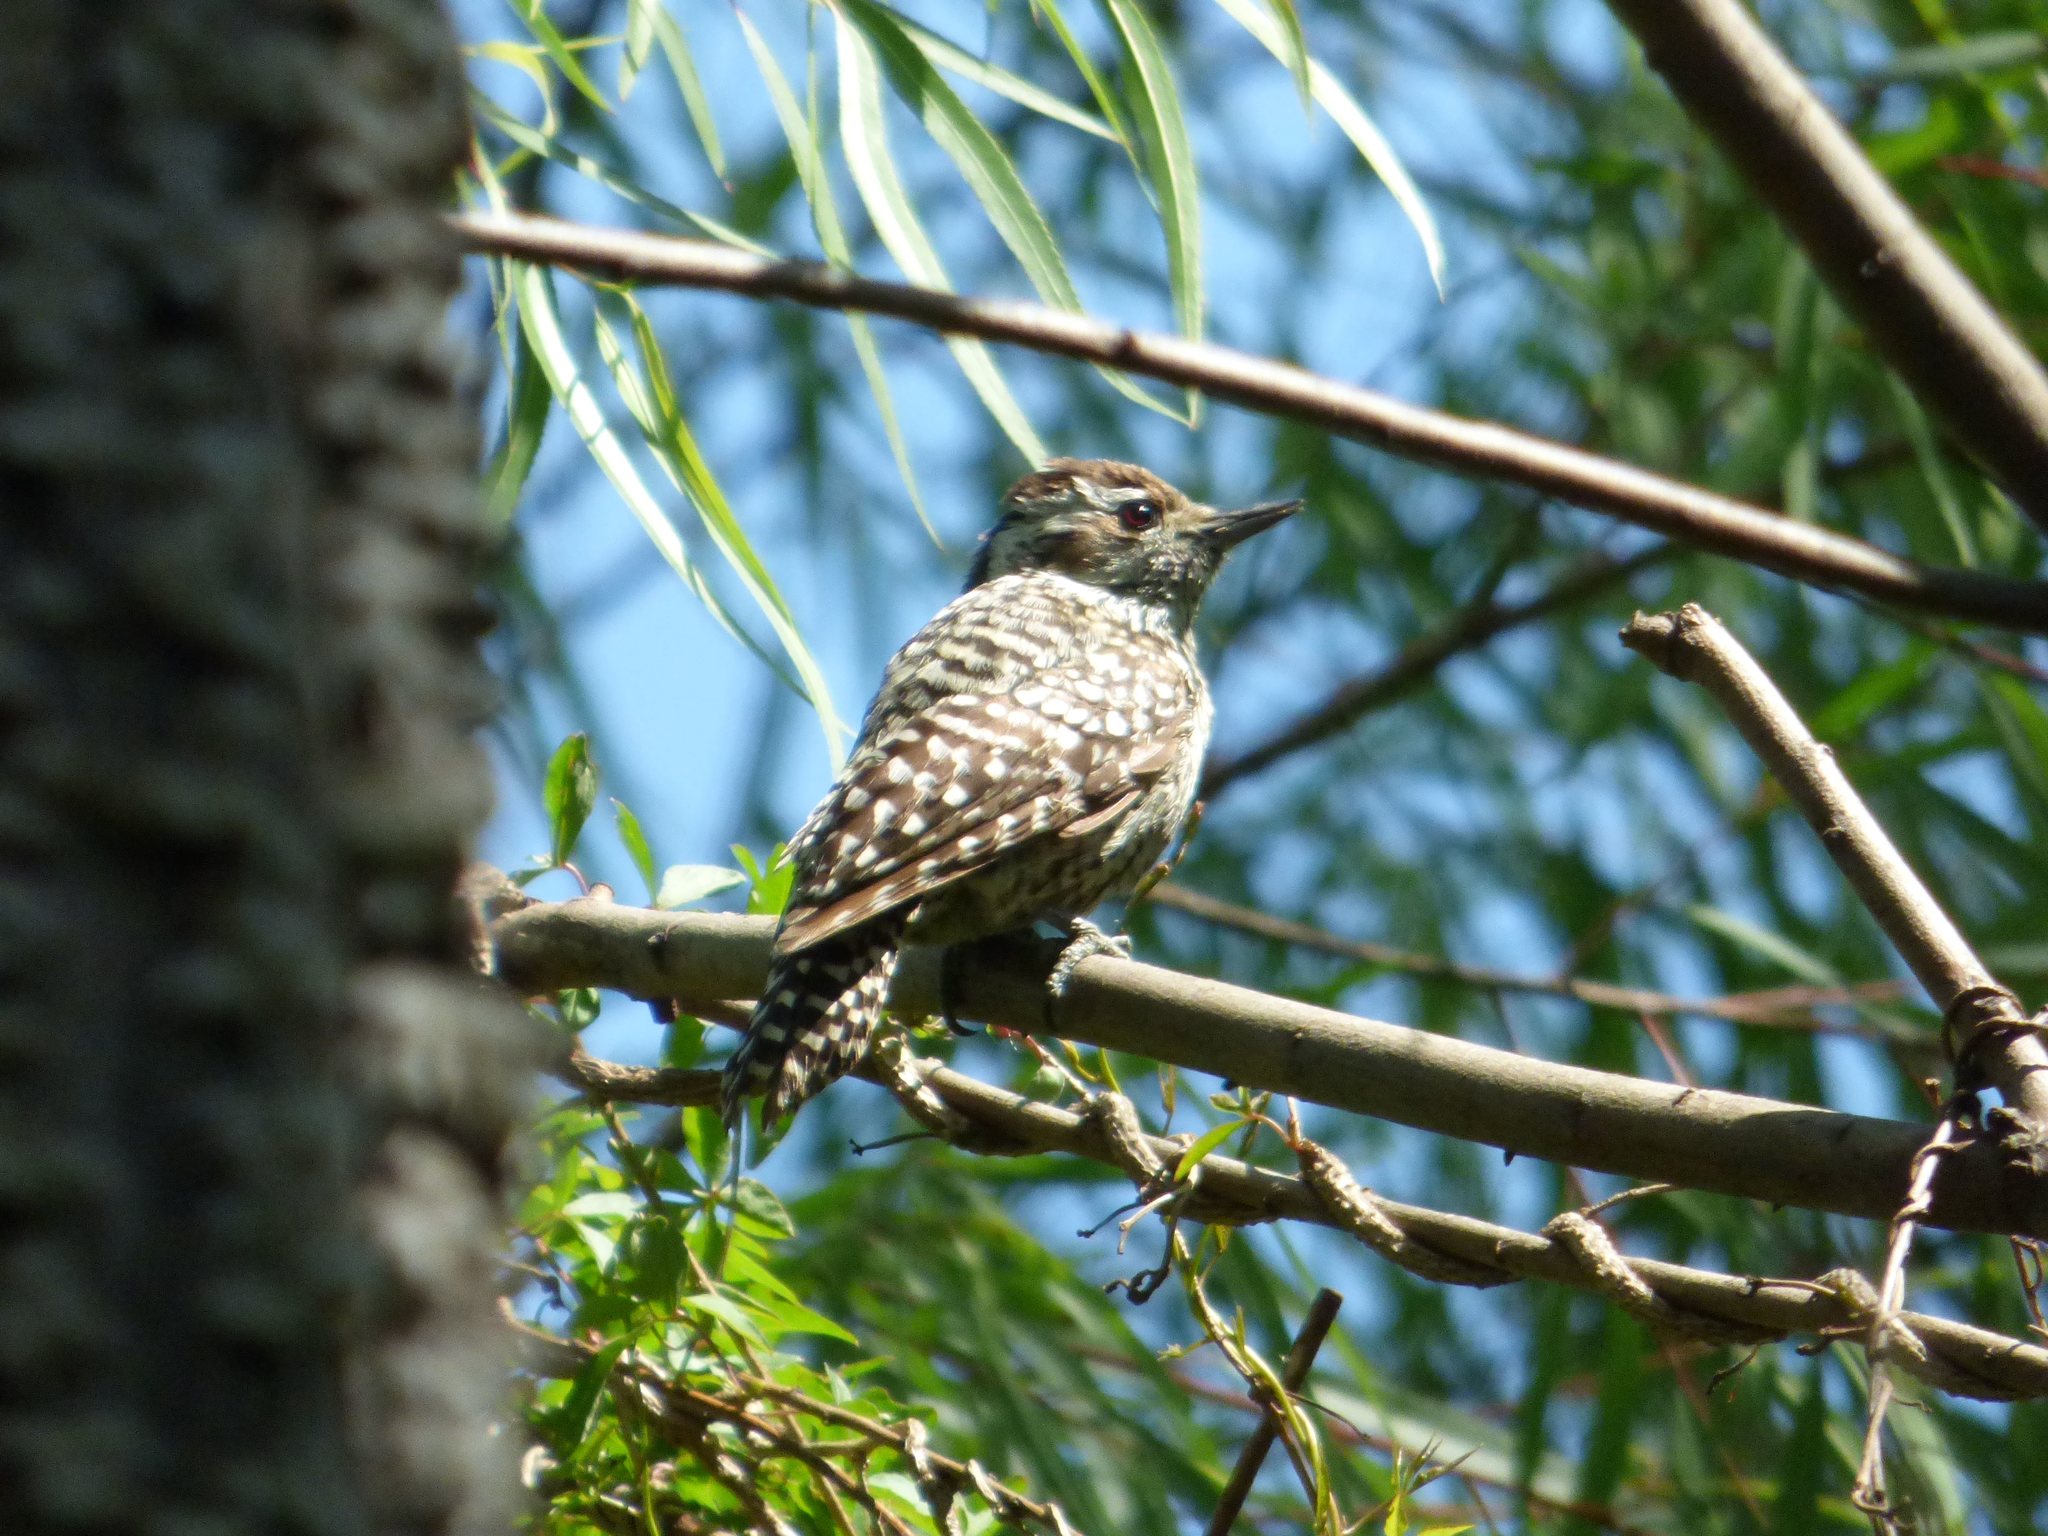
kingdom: Animalia
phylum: Chordata
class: Aves
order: Piciformes
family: Picidae
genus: Veniliornis
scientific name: Veniliornis mixtus
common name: Checkered woodpecker
